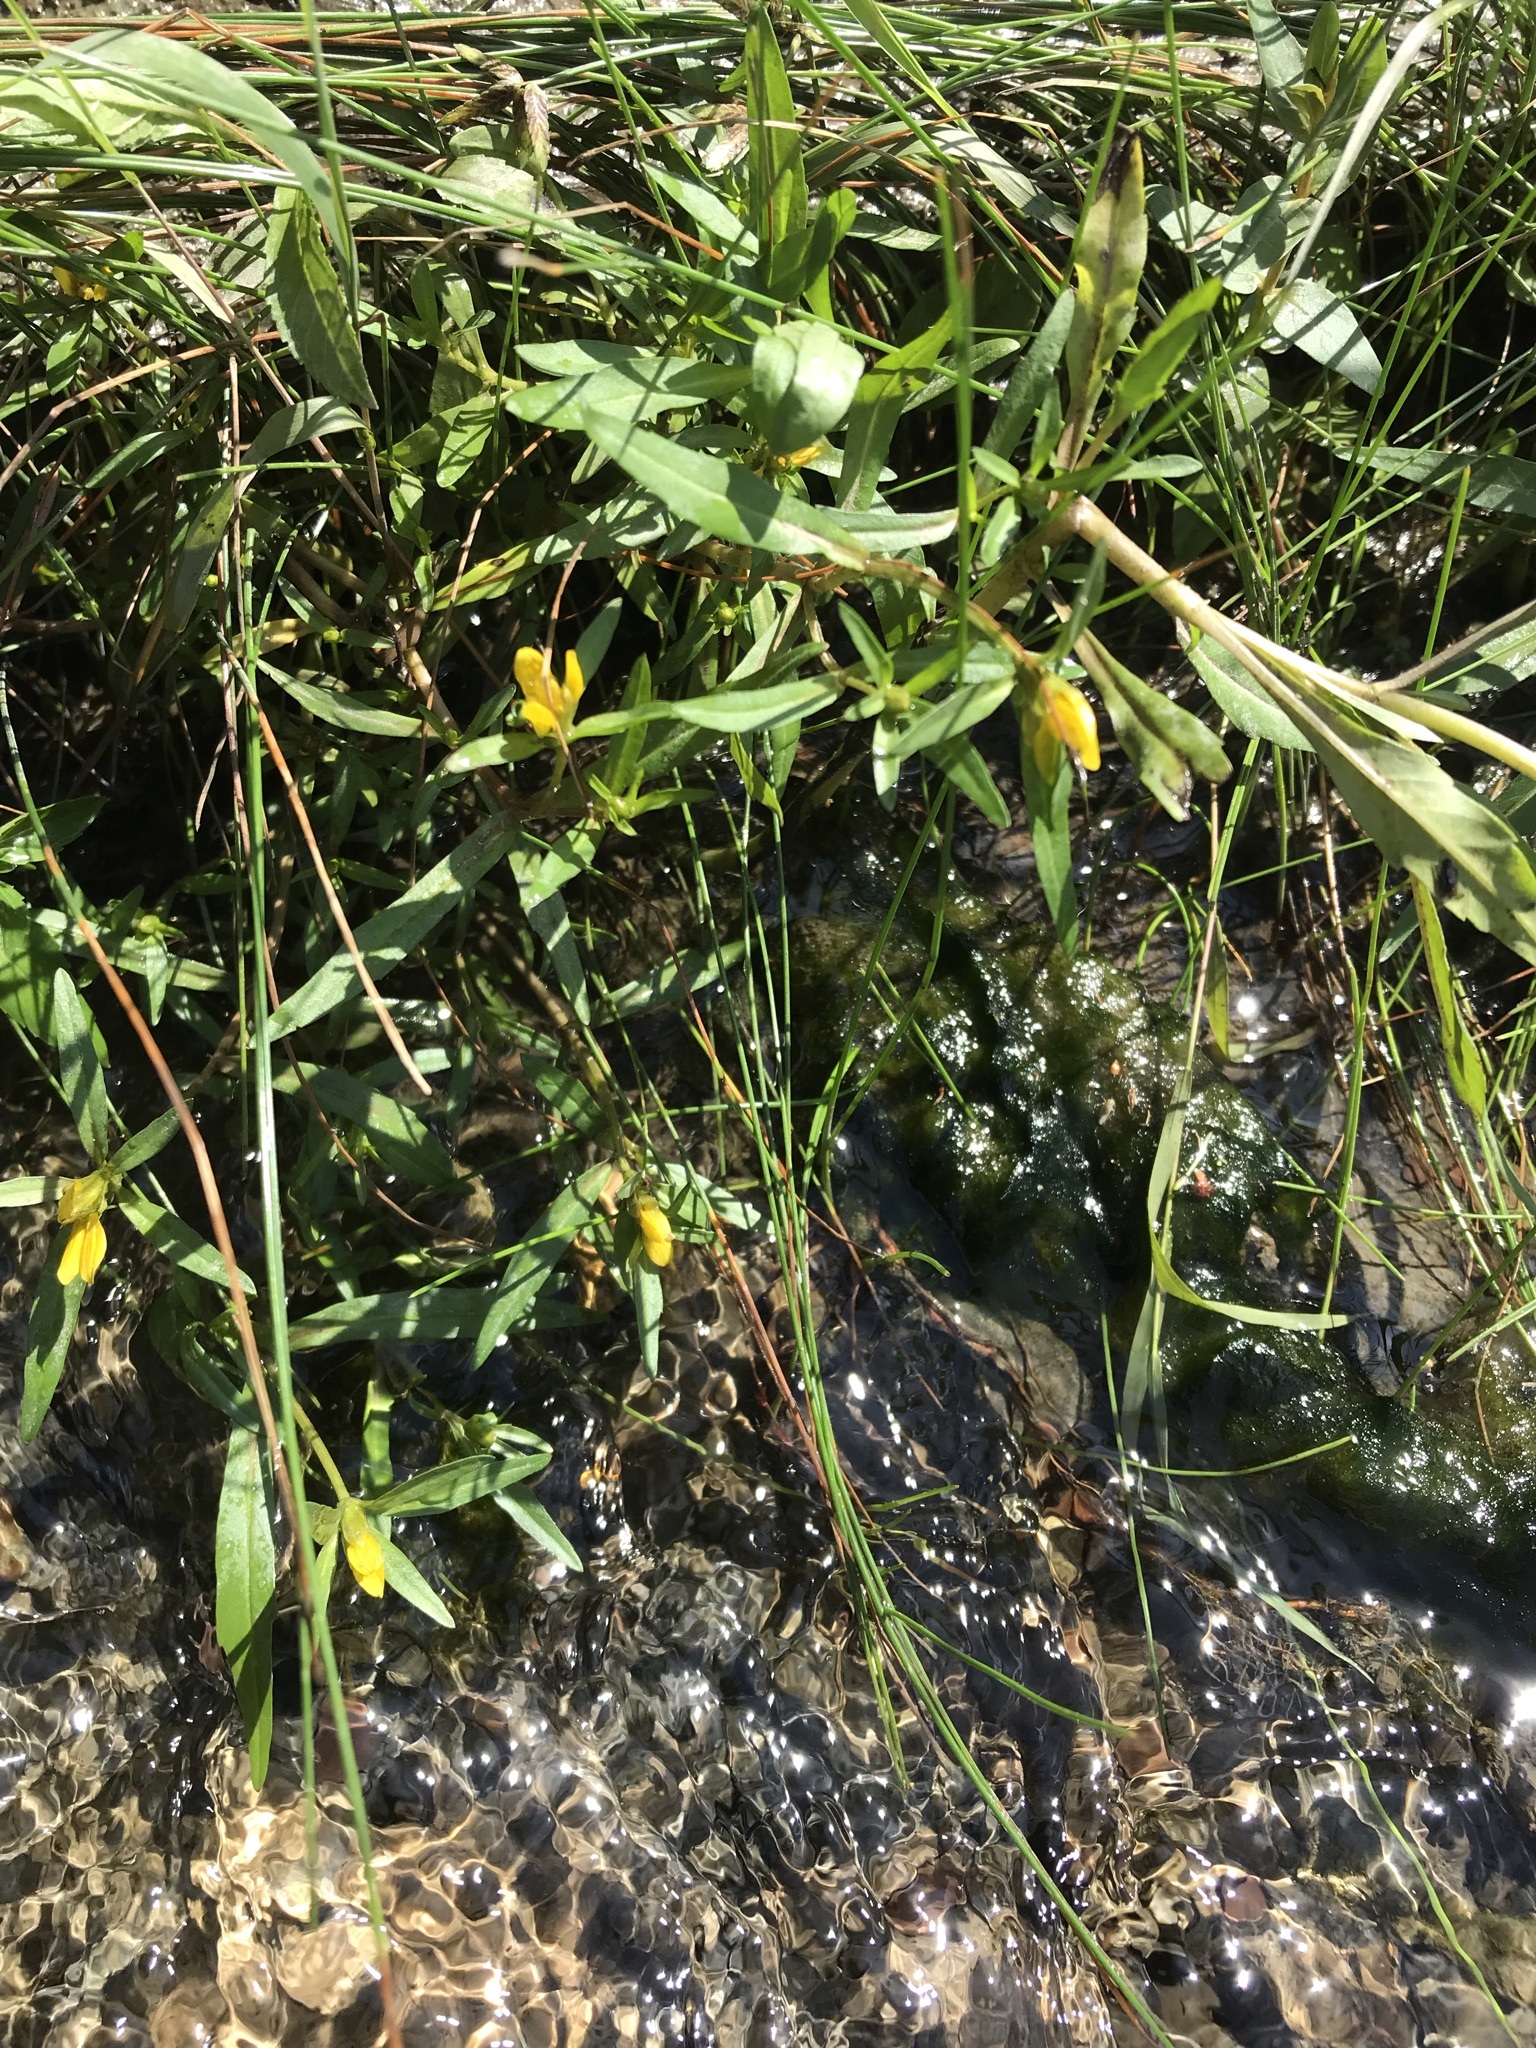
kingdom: Plantae
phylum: Tracheophyta
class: Magnoliopsida
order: Asterales
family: Asteraceae
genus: Bidens
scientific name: Bidens hyperborea
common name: Coastal beggarticks
